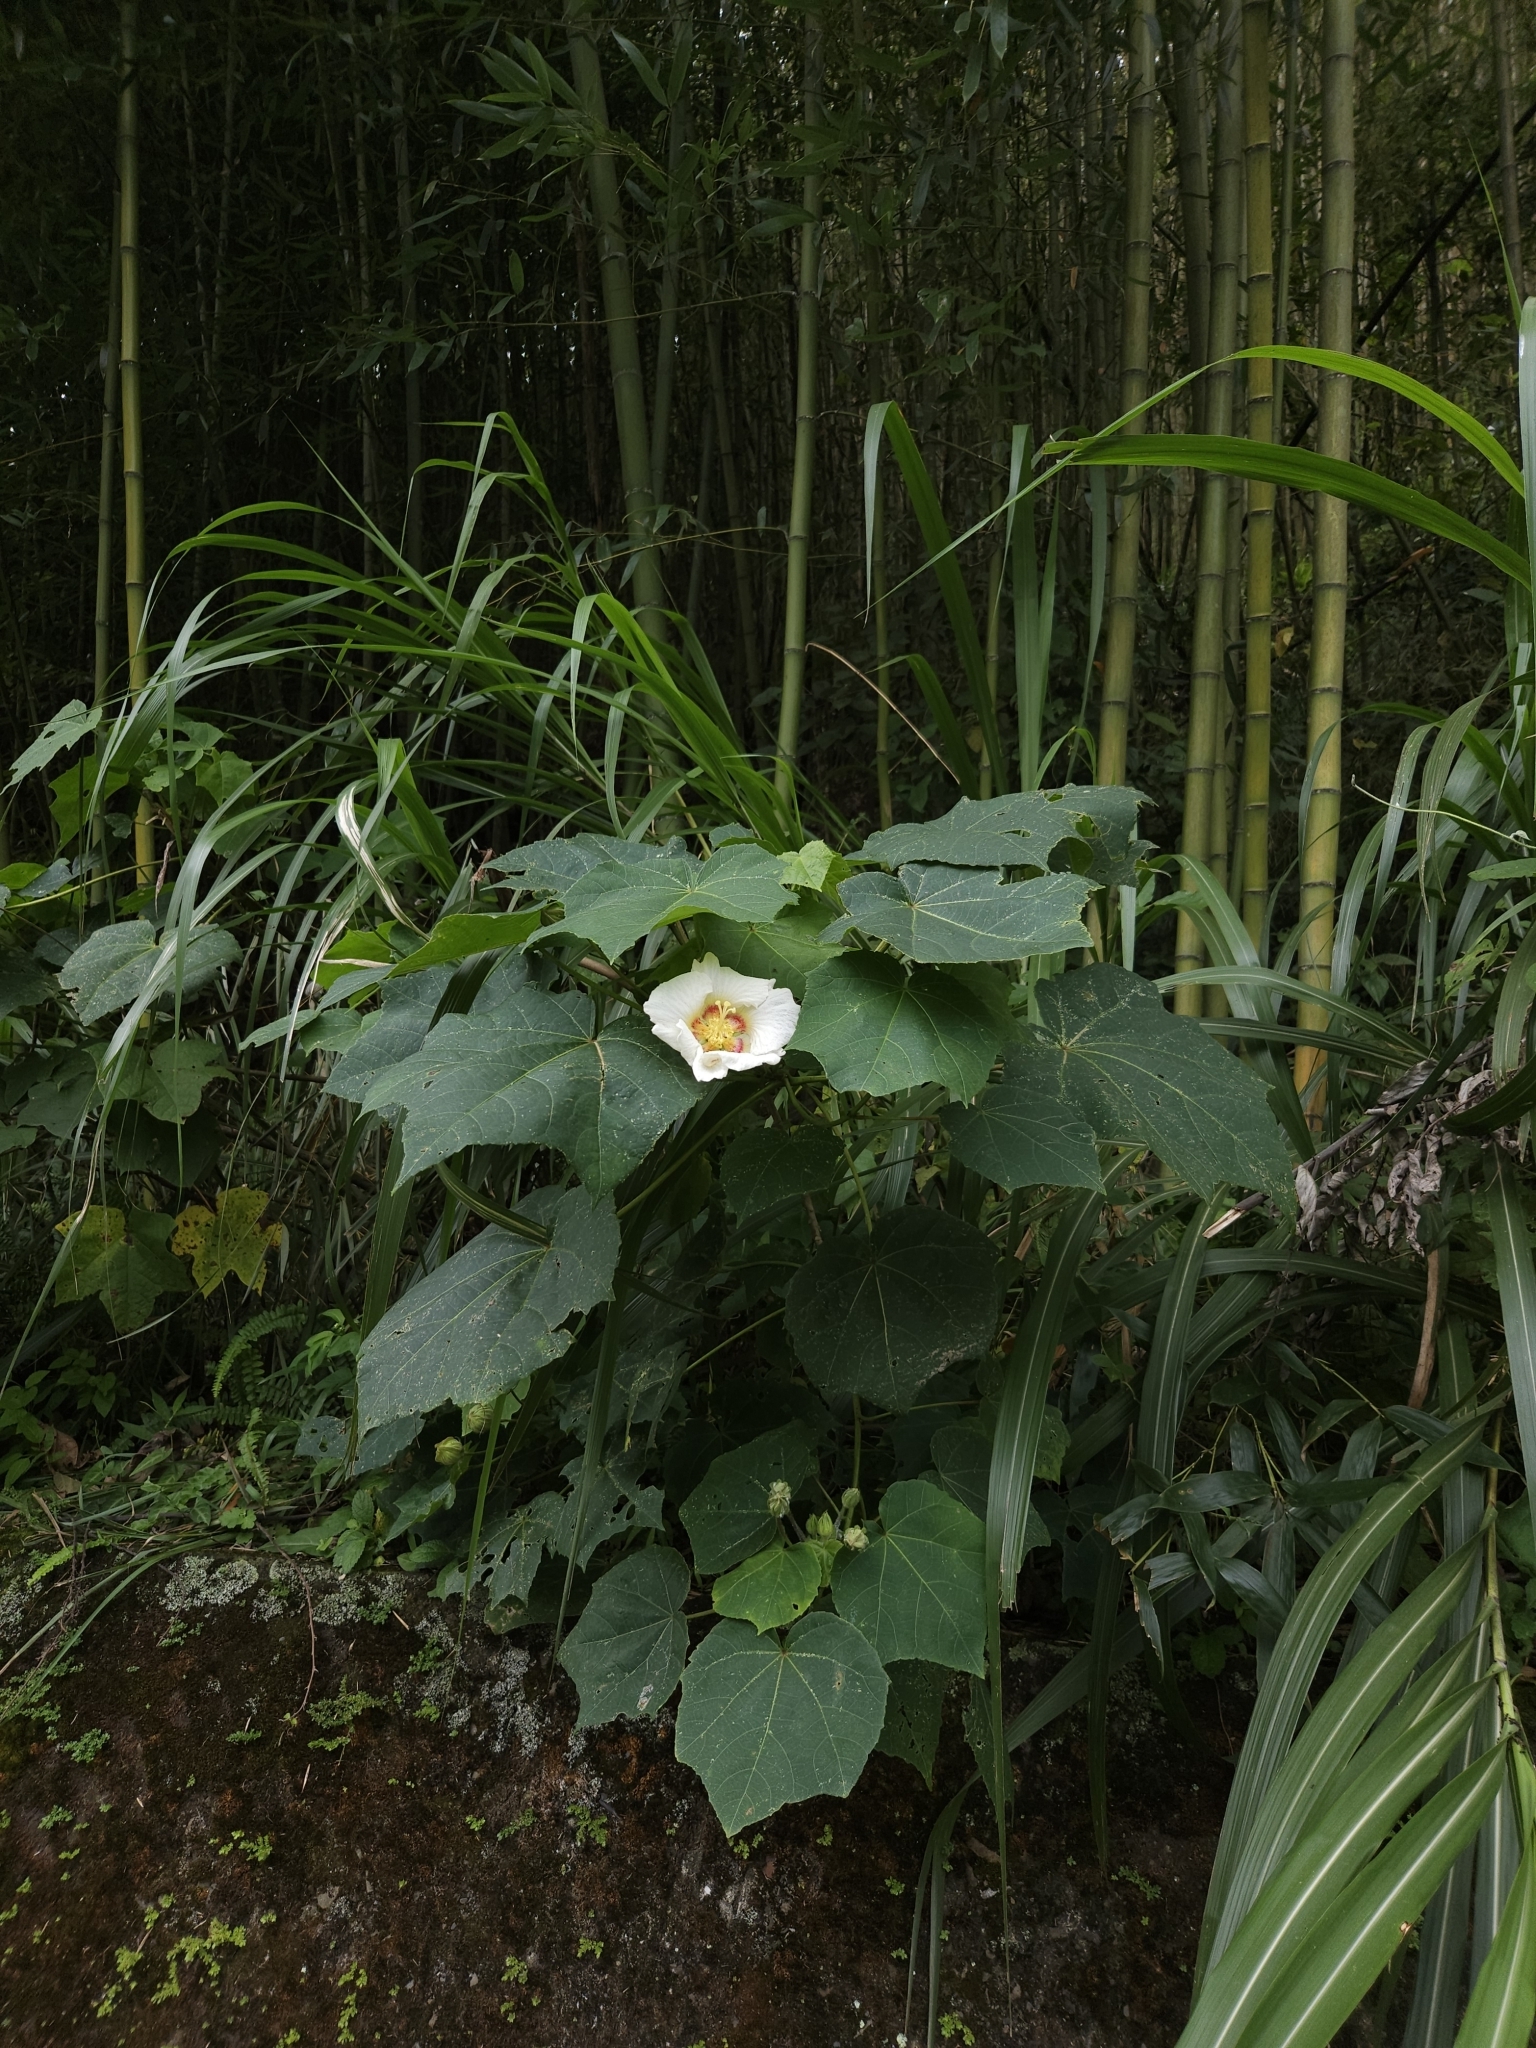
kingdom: Plantae
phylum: Tracheophyta
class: Magnoliopsida
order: Malvales
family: Malvaceae
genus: Hibiscus
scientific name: Hibiscus taiwanensis
